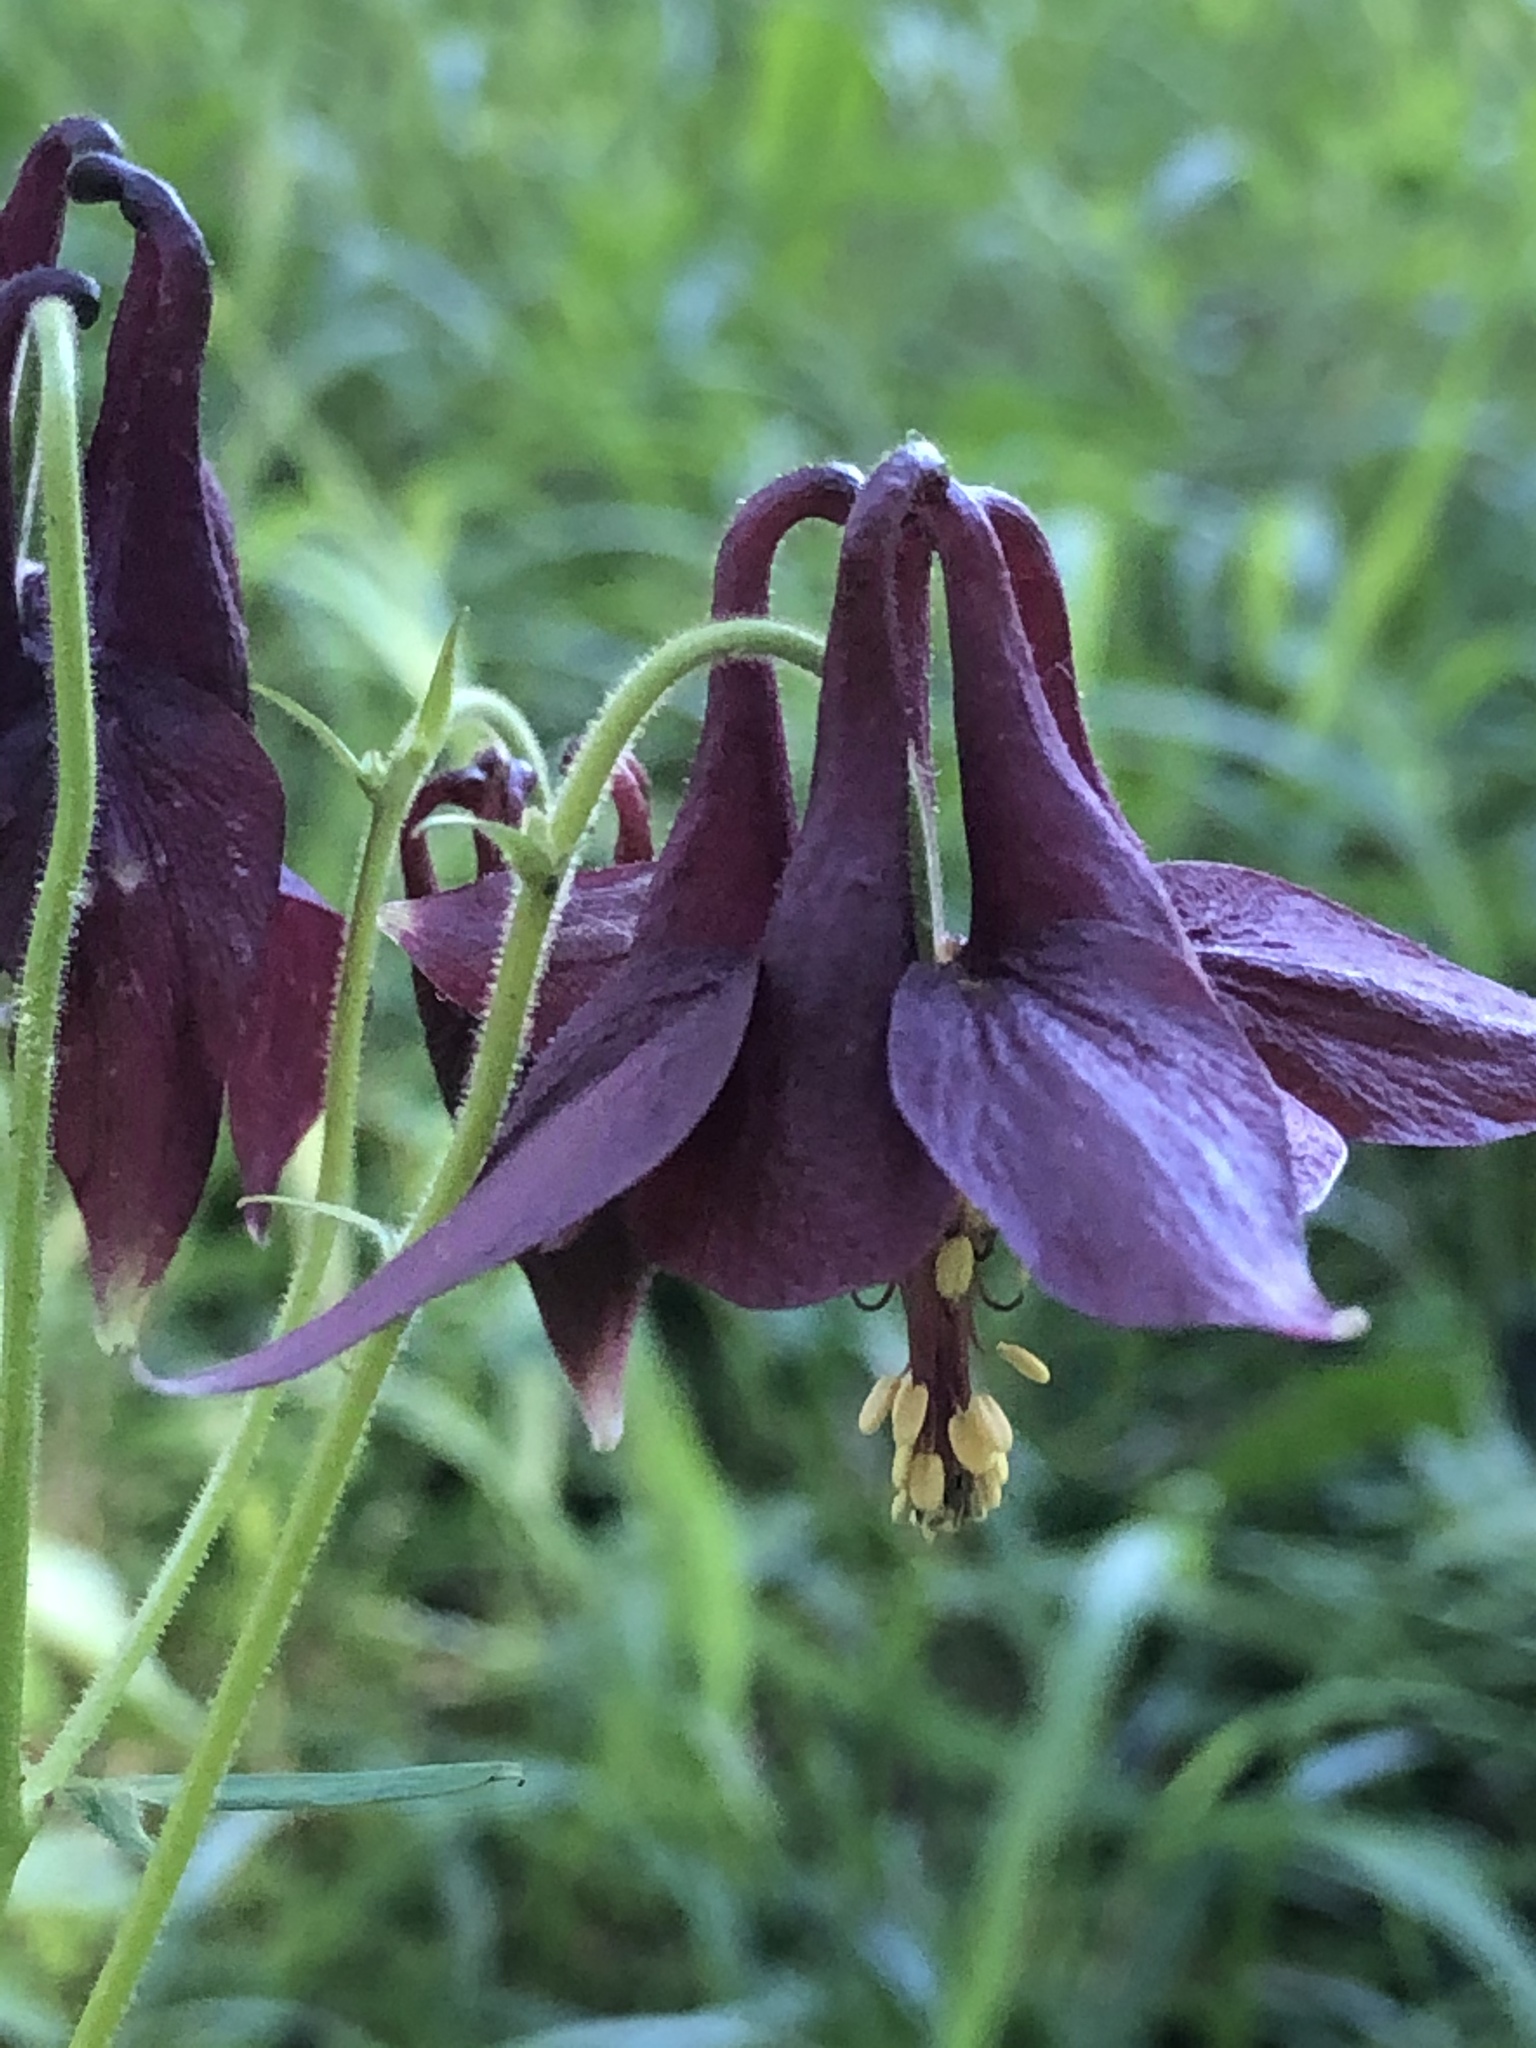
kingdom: Plantae
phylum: Tracheophyta
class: Magnoliopsida
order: Ranunculales
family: Ranunculaceae
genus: Aquilegia
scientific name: Aquilegia atrata
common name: Dark columbine
